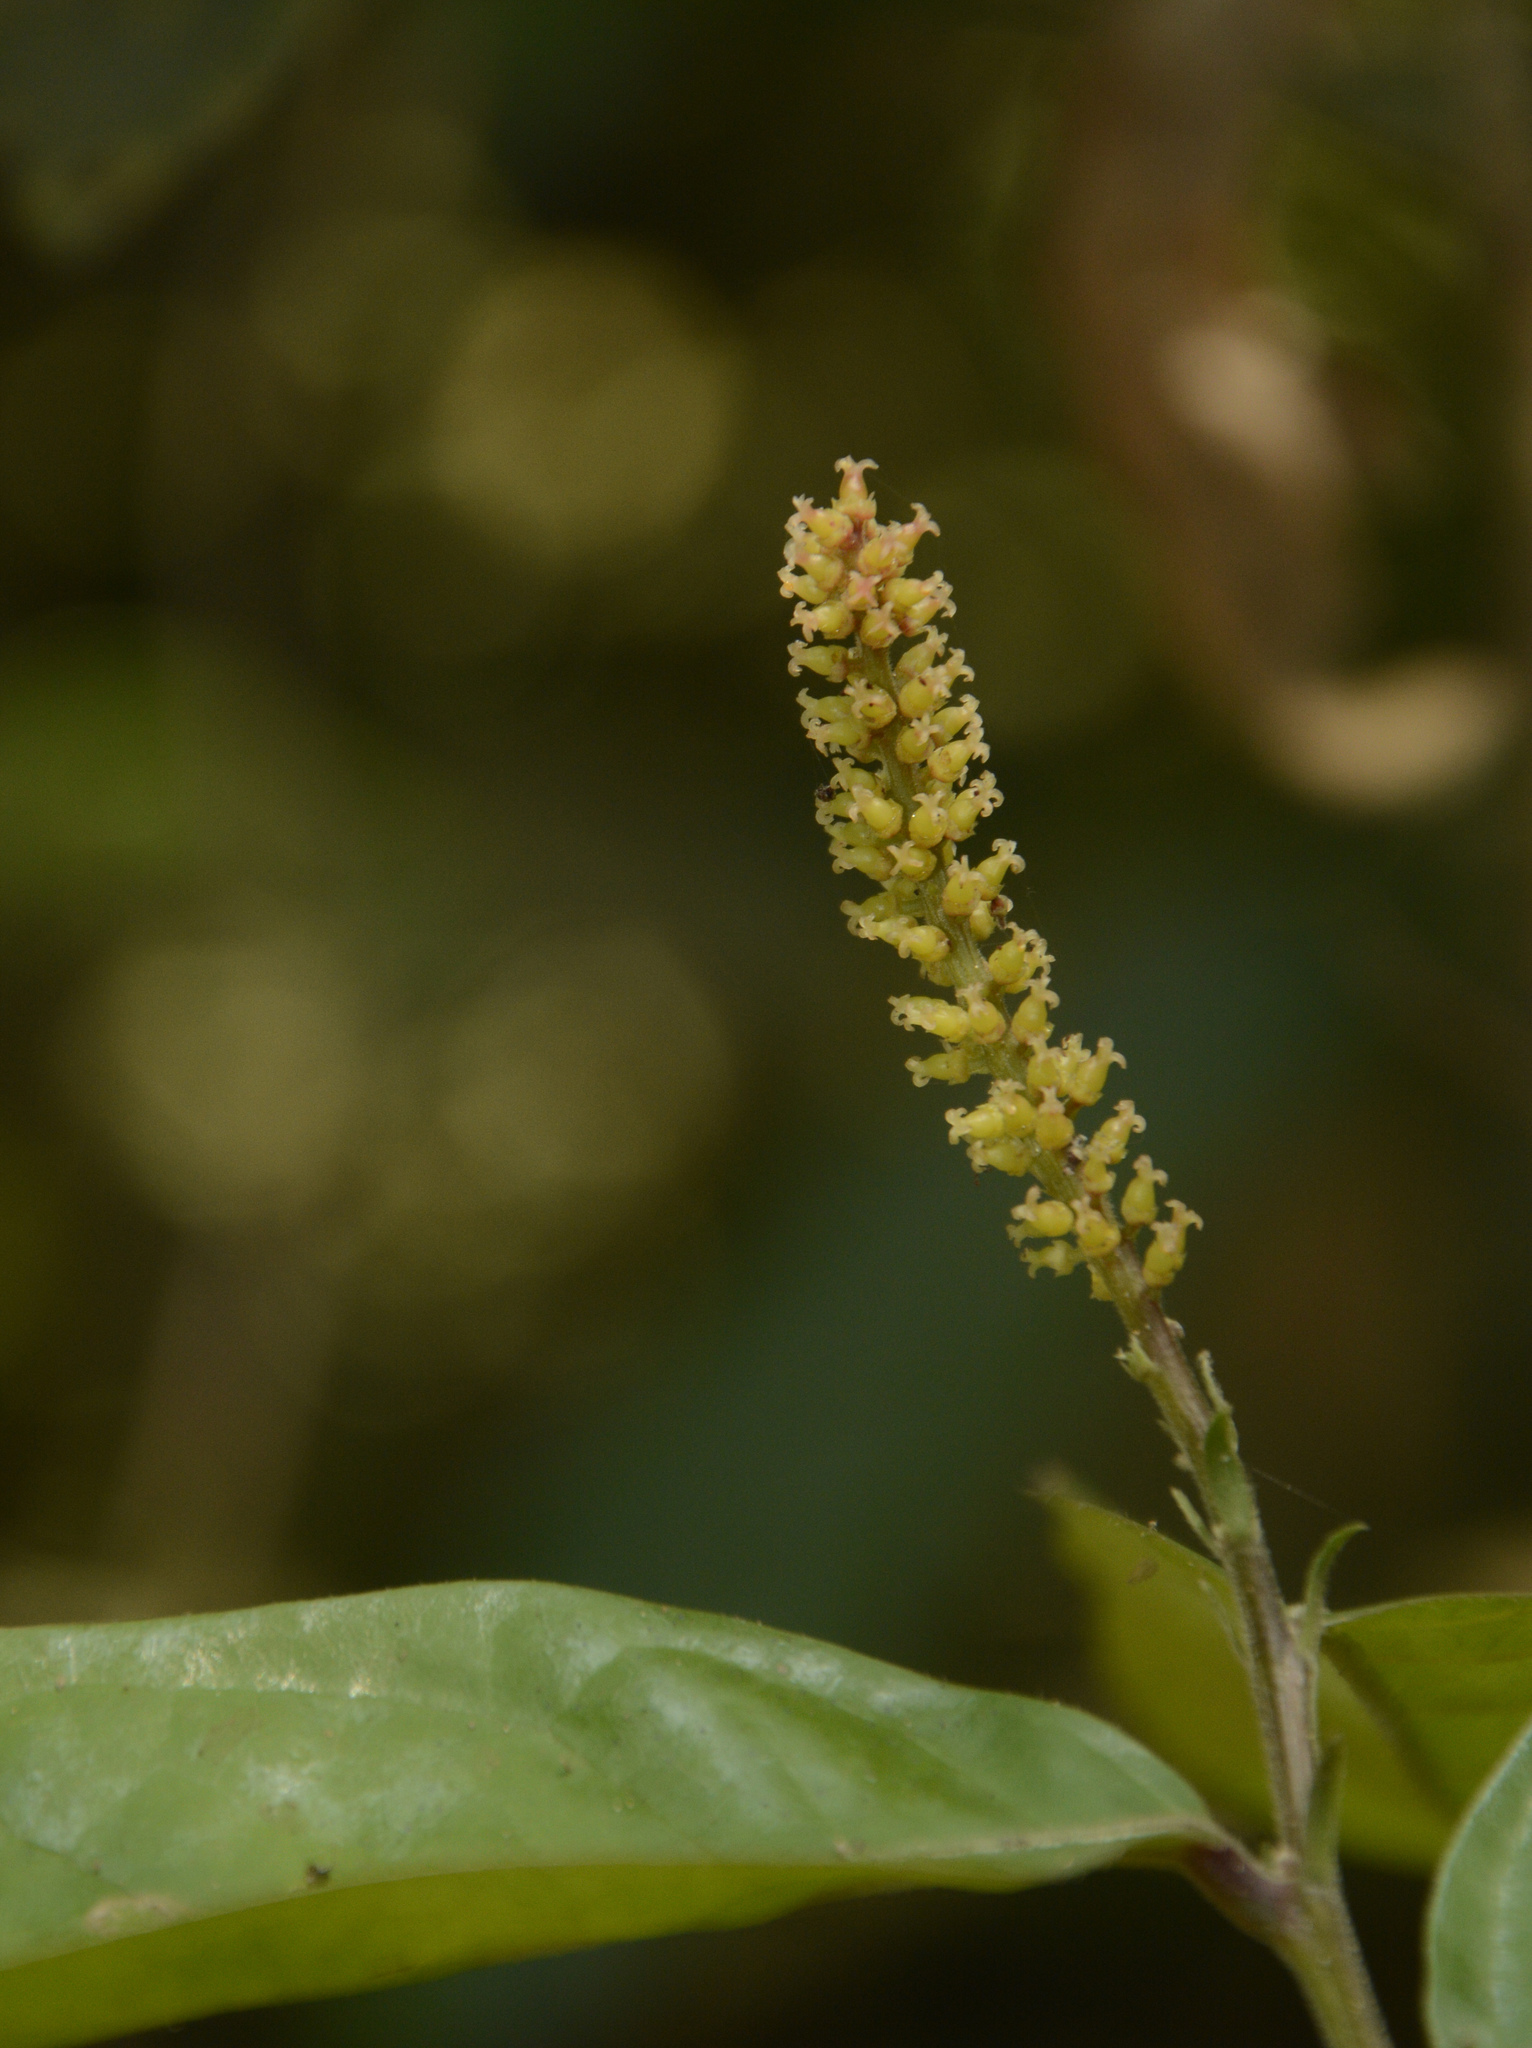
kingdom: Plantae
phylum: Tracheophyta
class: Magnoliopsida
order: Malpighiales
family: Phyllanthaceae
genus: Antidesma
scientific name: Antidesma montanum
